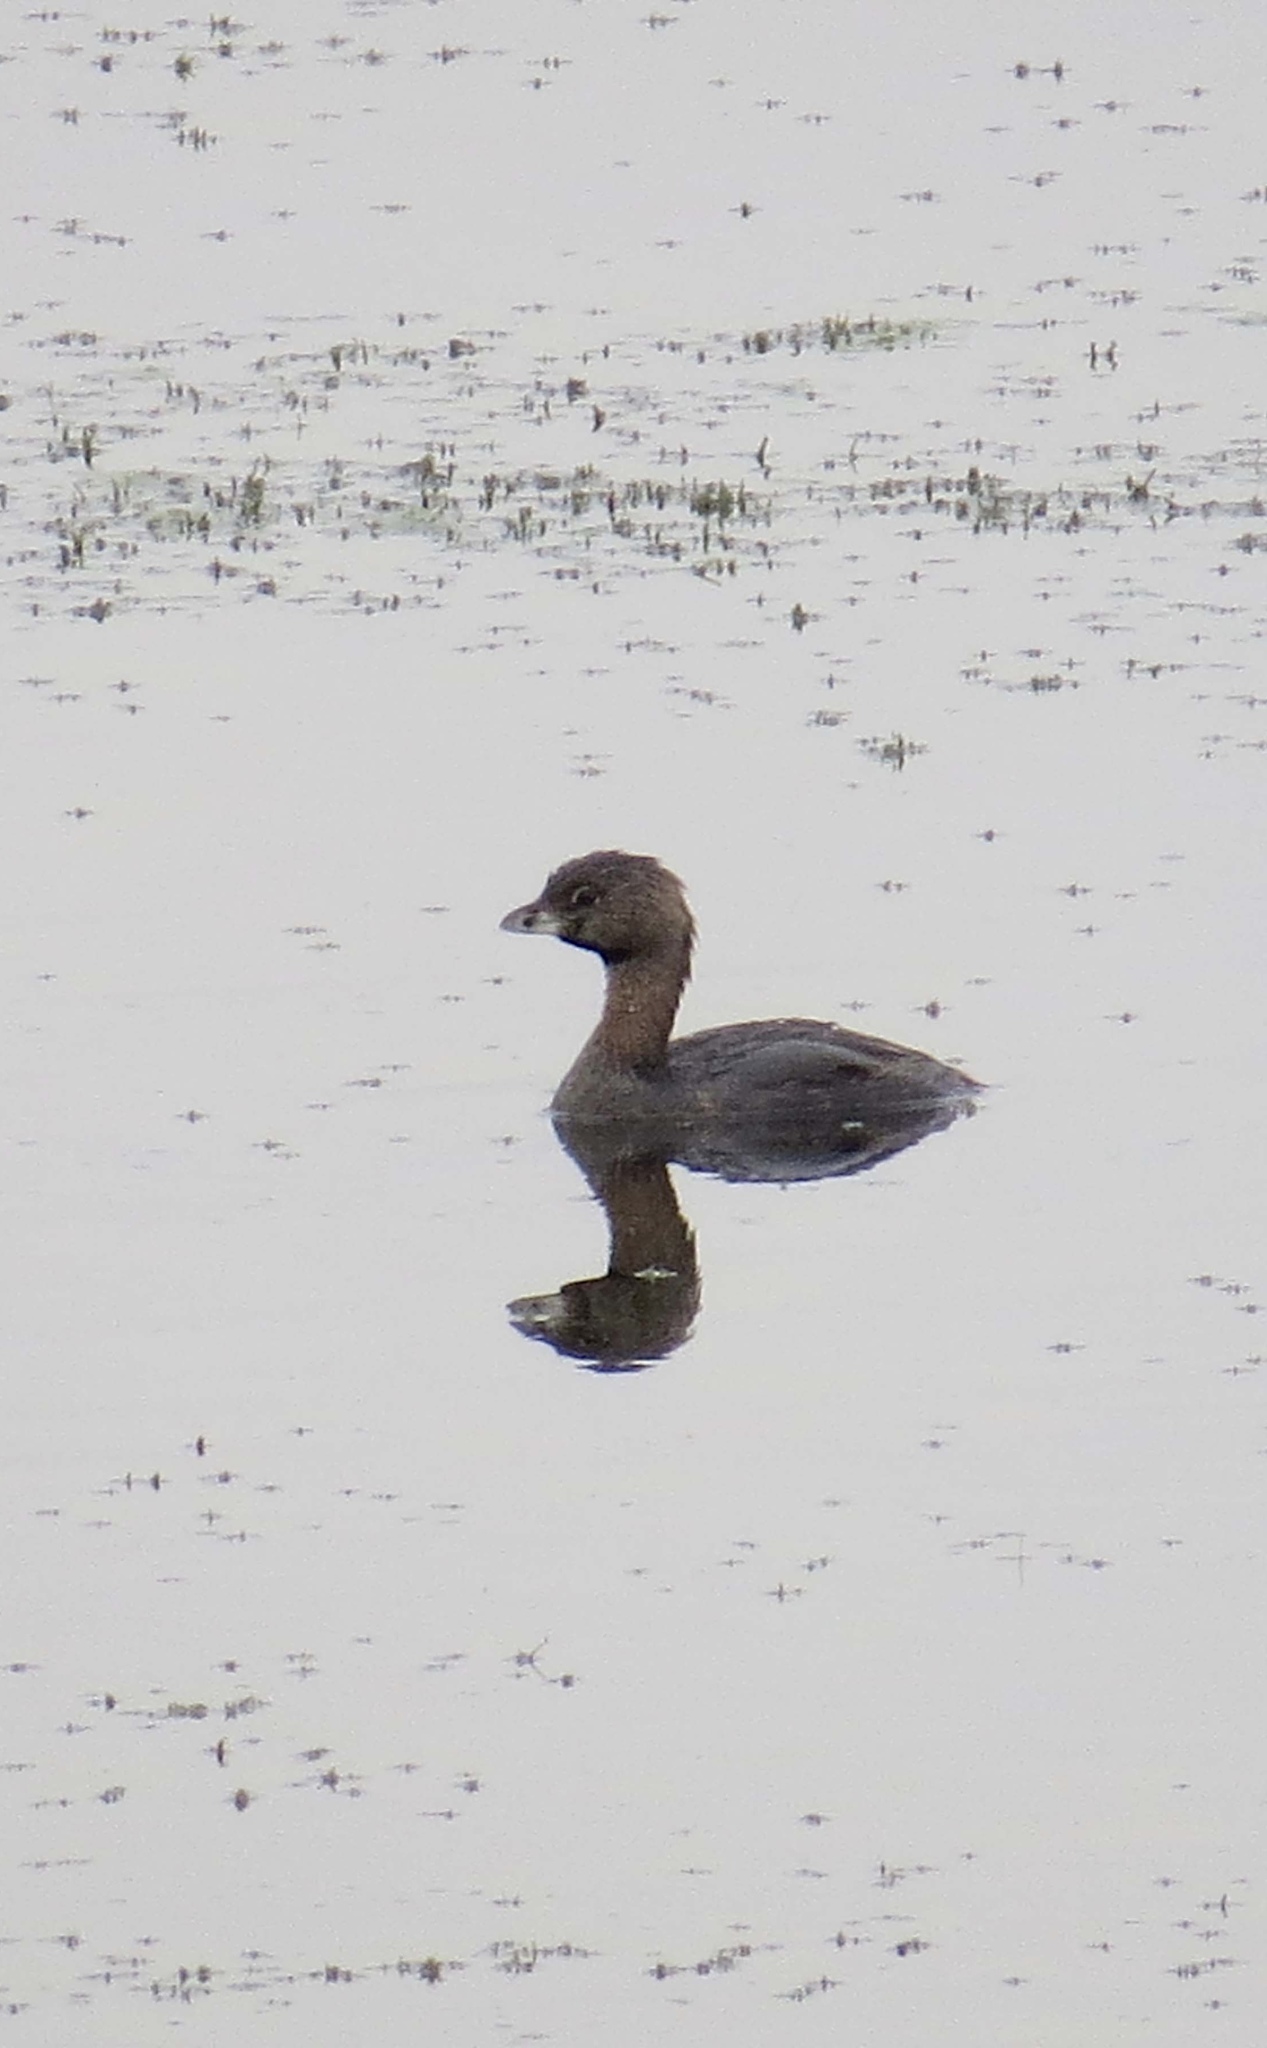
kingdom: Animalia
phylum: Chordata
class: Aves
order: Podicipediformes
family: Podicipedidae
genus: Podilymbus
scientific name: Podilymbus podiceps
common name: Pied-billed grebe
